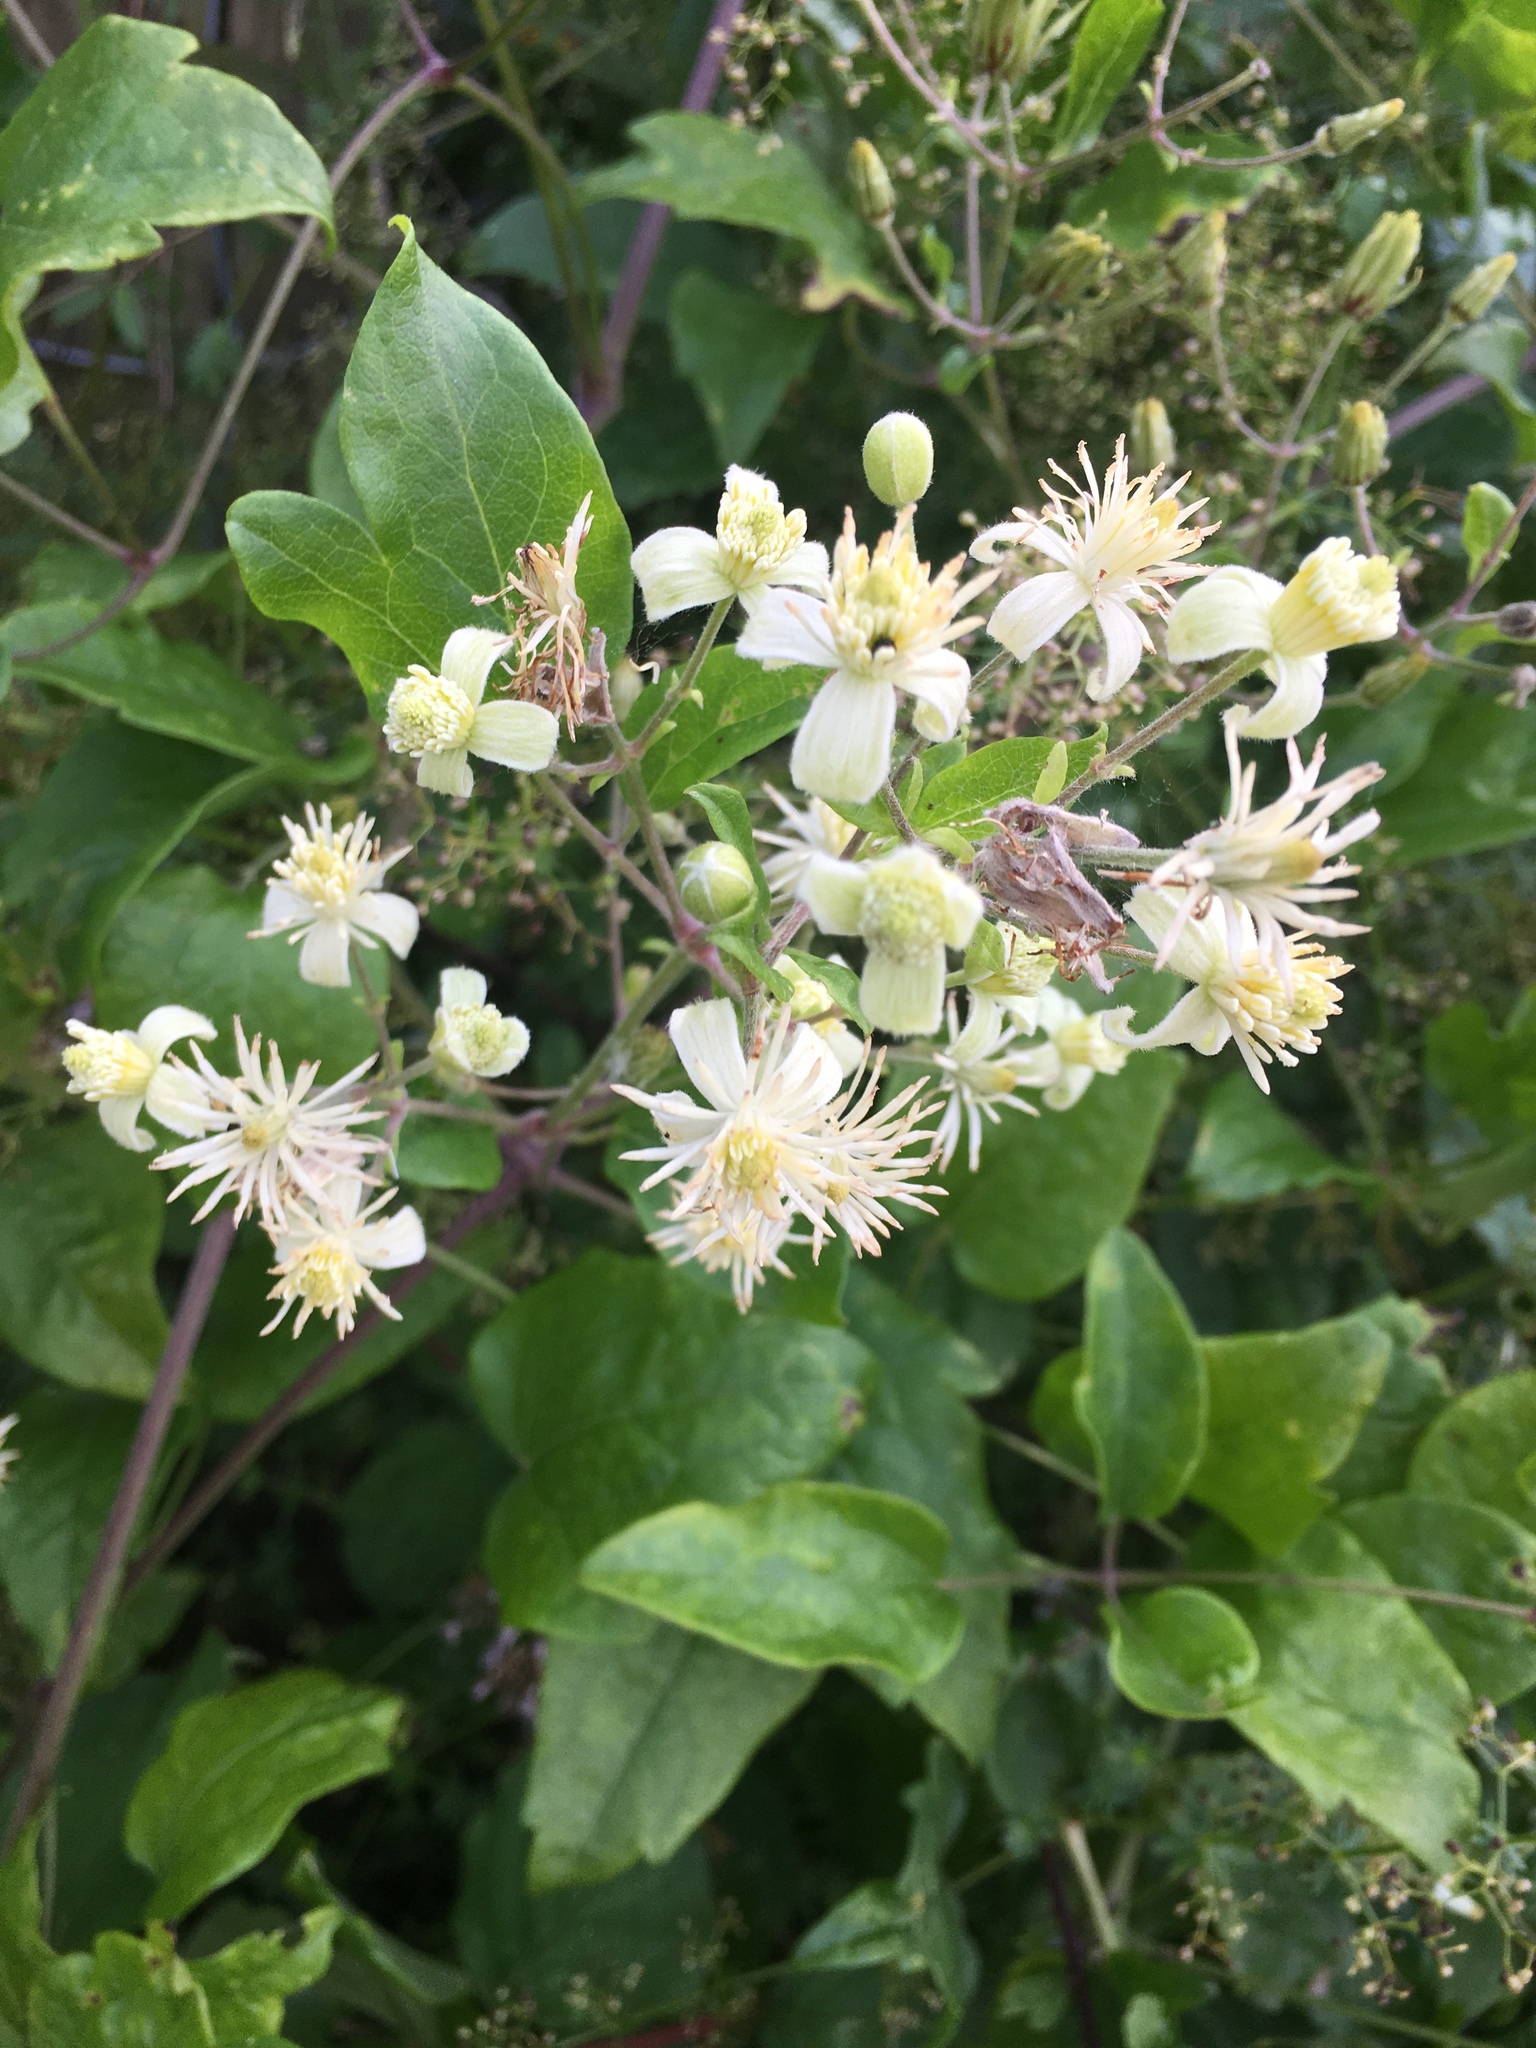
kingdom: Plantae
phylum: Tracheophyta
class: Magnoliopsida
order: Ranunculales
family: Ranunculaceae
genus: Clematis
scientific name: Clematis vitalba
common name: Evergreen clematis
